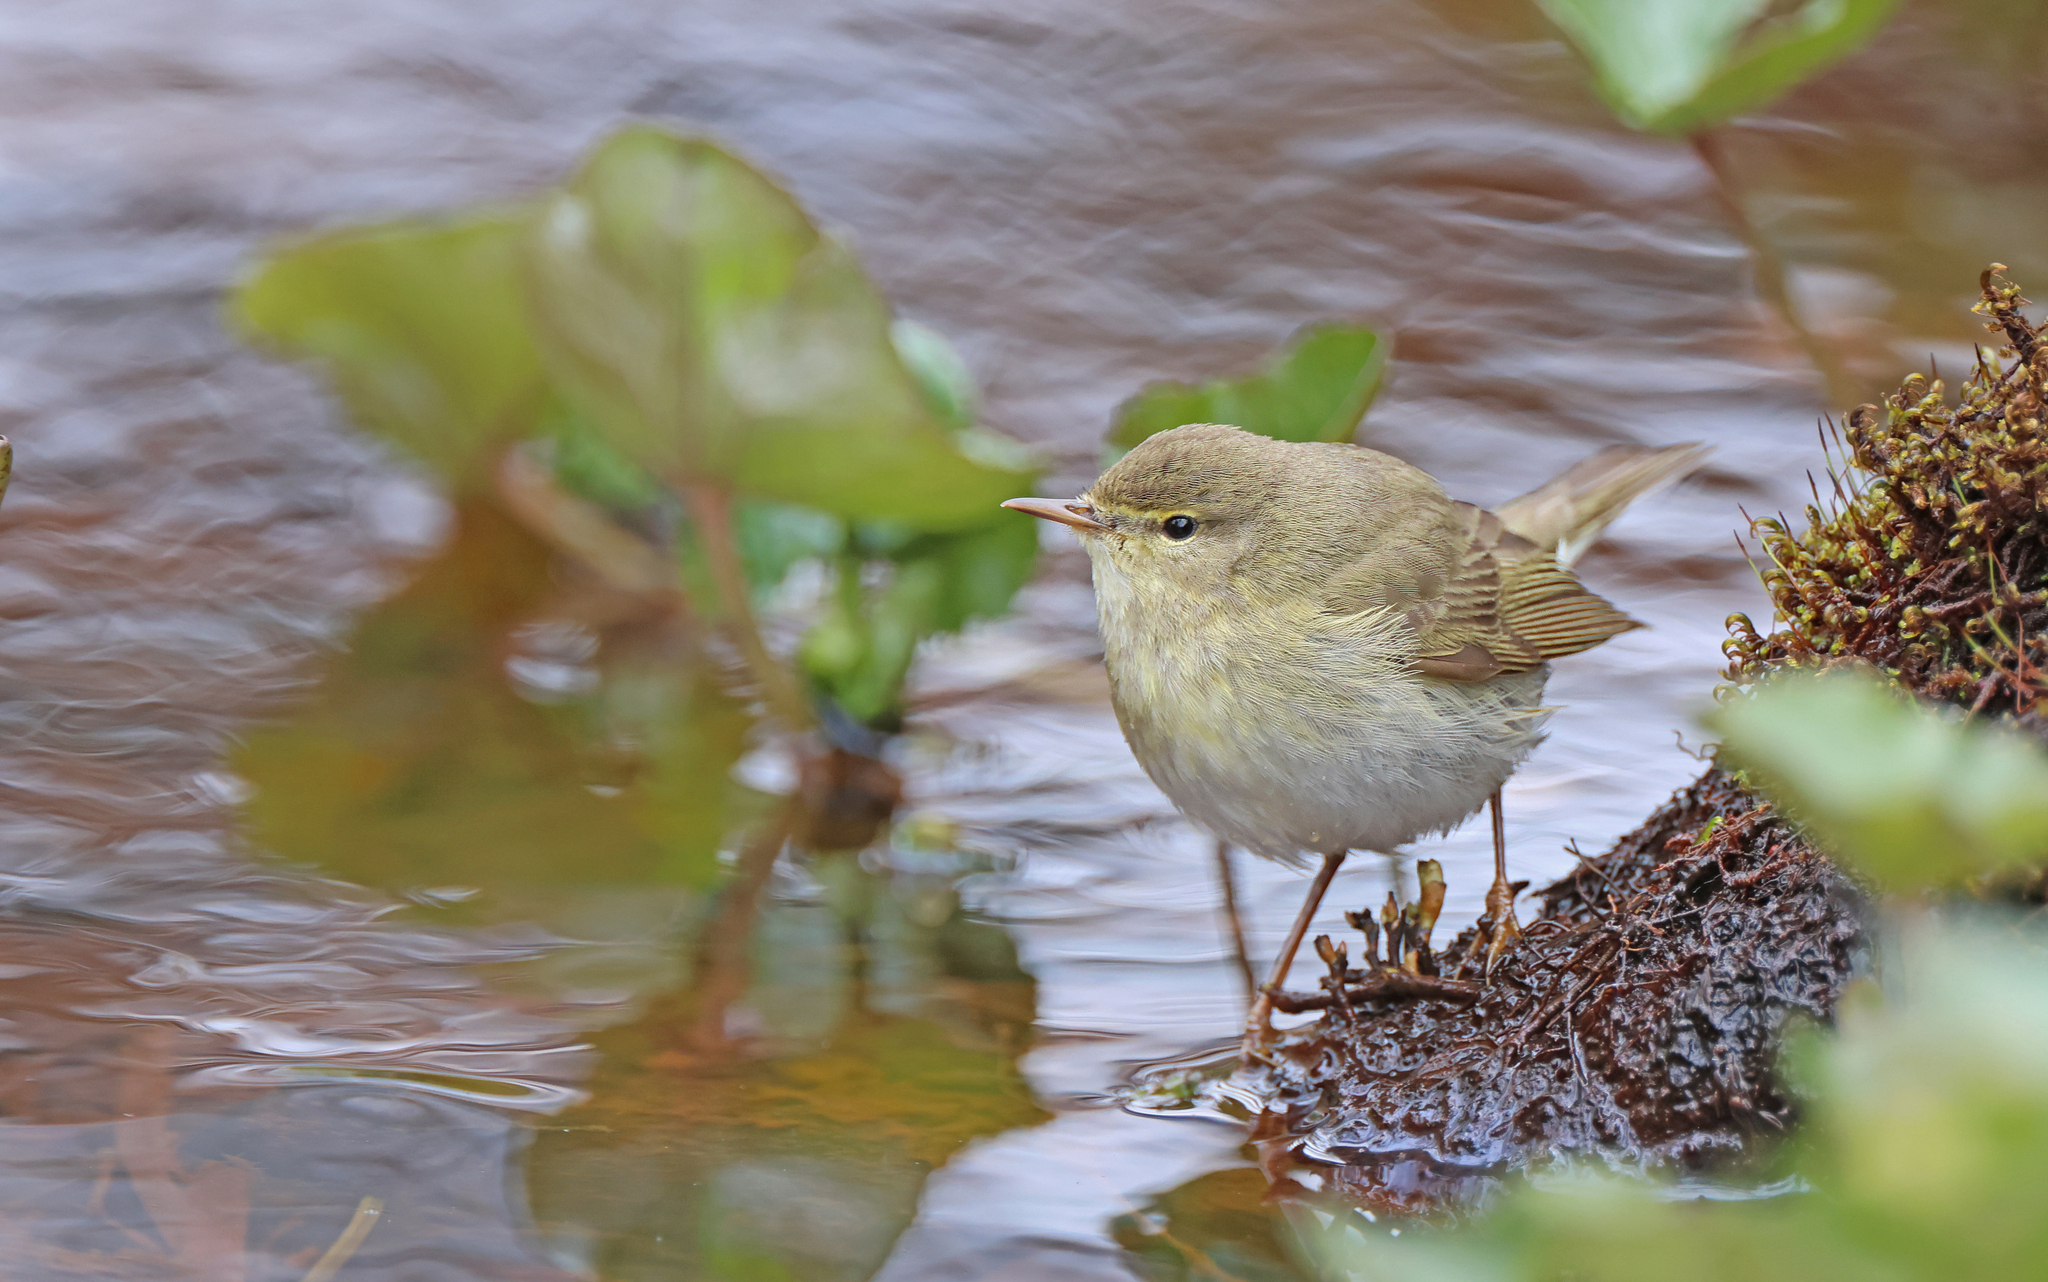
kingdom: Animalia
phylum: Chordata
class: Aves
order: Passeriformes
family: Phylloscopidae
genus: Phylloscopus
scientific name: Phylloscopus trochilus
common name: Willow warbler
